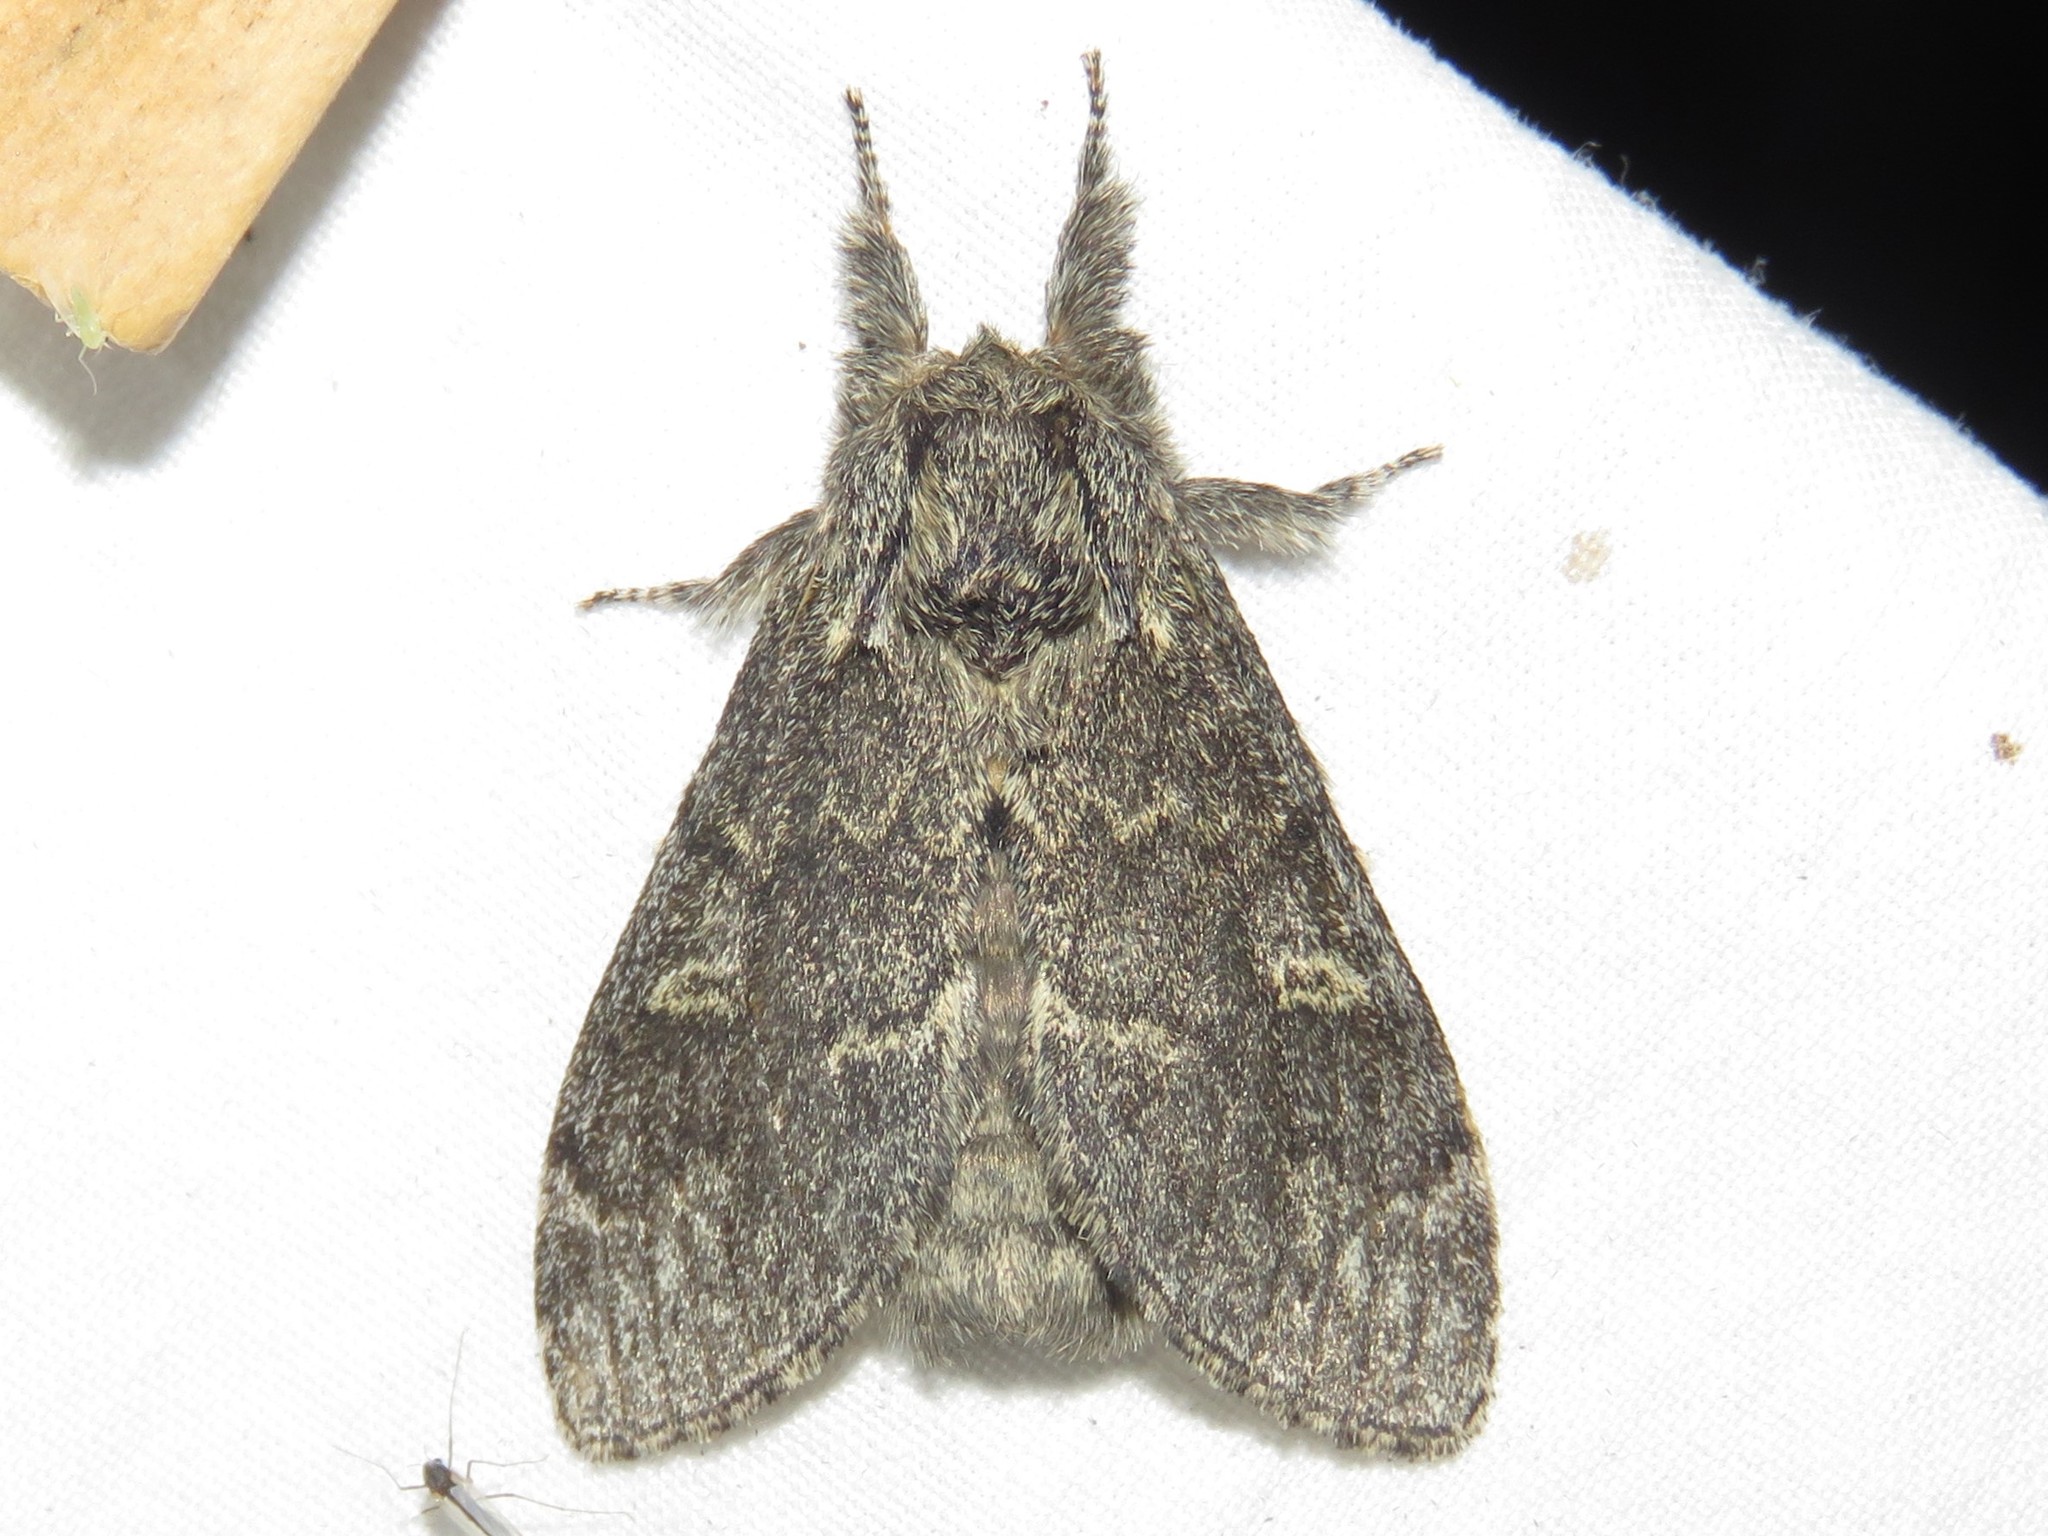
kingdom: Animalia
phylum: Arthropoda
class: Insecta
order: Lepidoptera
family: Notodontidae
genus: Notodonta
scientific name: Notodonta torva
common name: Large dark prominent
